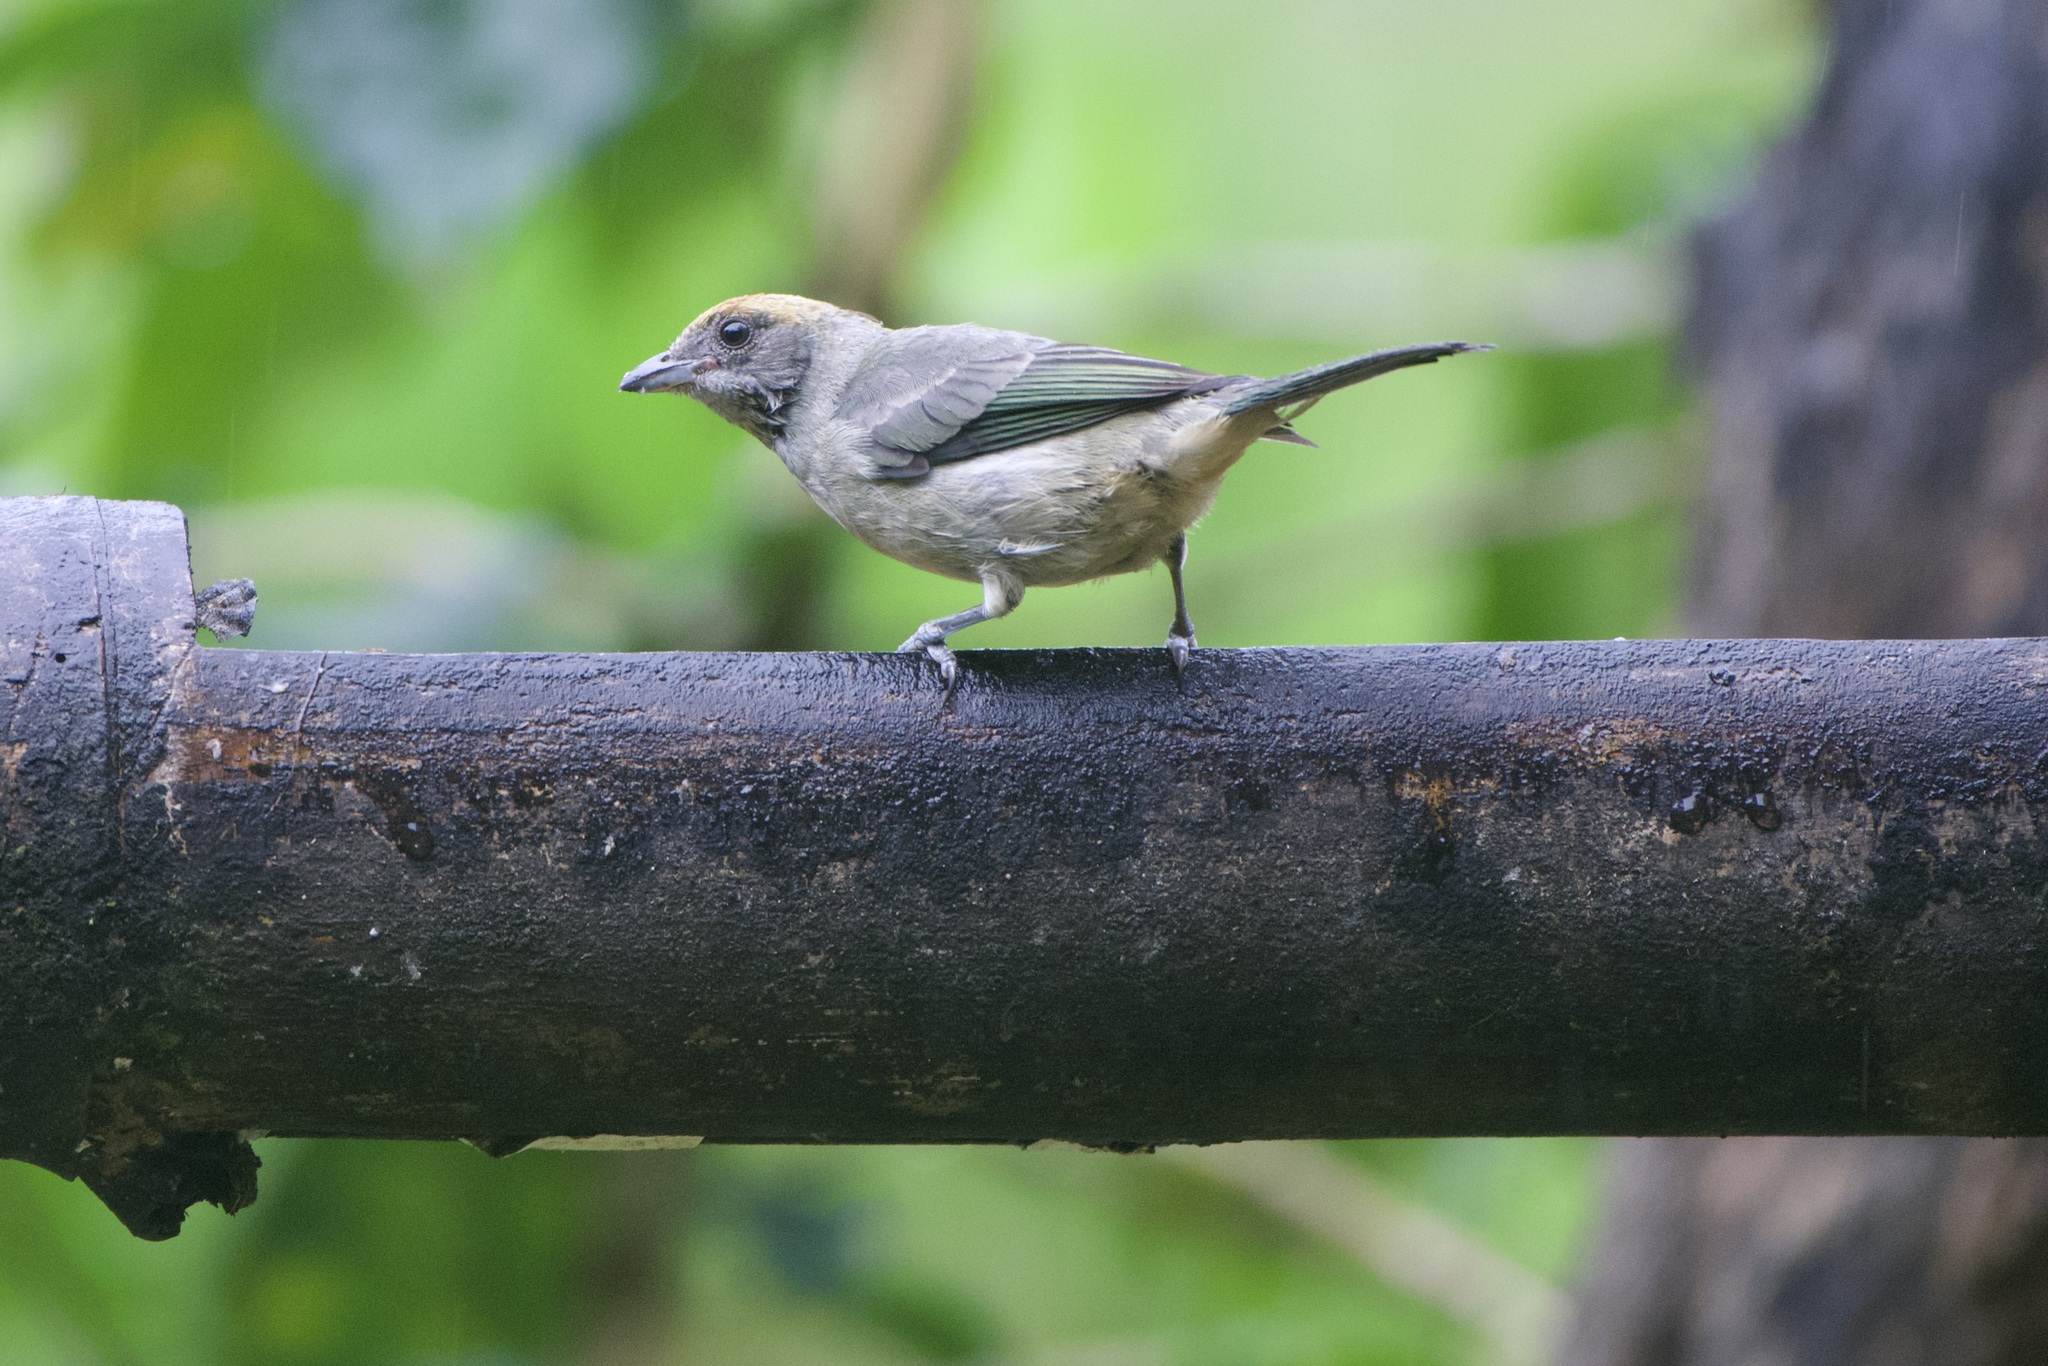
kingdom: Animalia
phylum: Chordata
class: Aves
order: Passeriformes
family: Thraupidae
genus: Stilpnia
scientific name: Stilpnia vitriolina
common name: Scrub tanager
